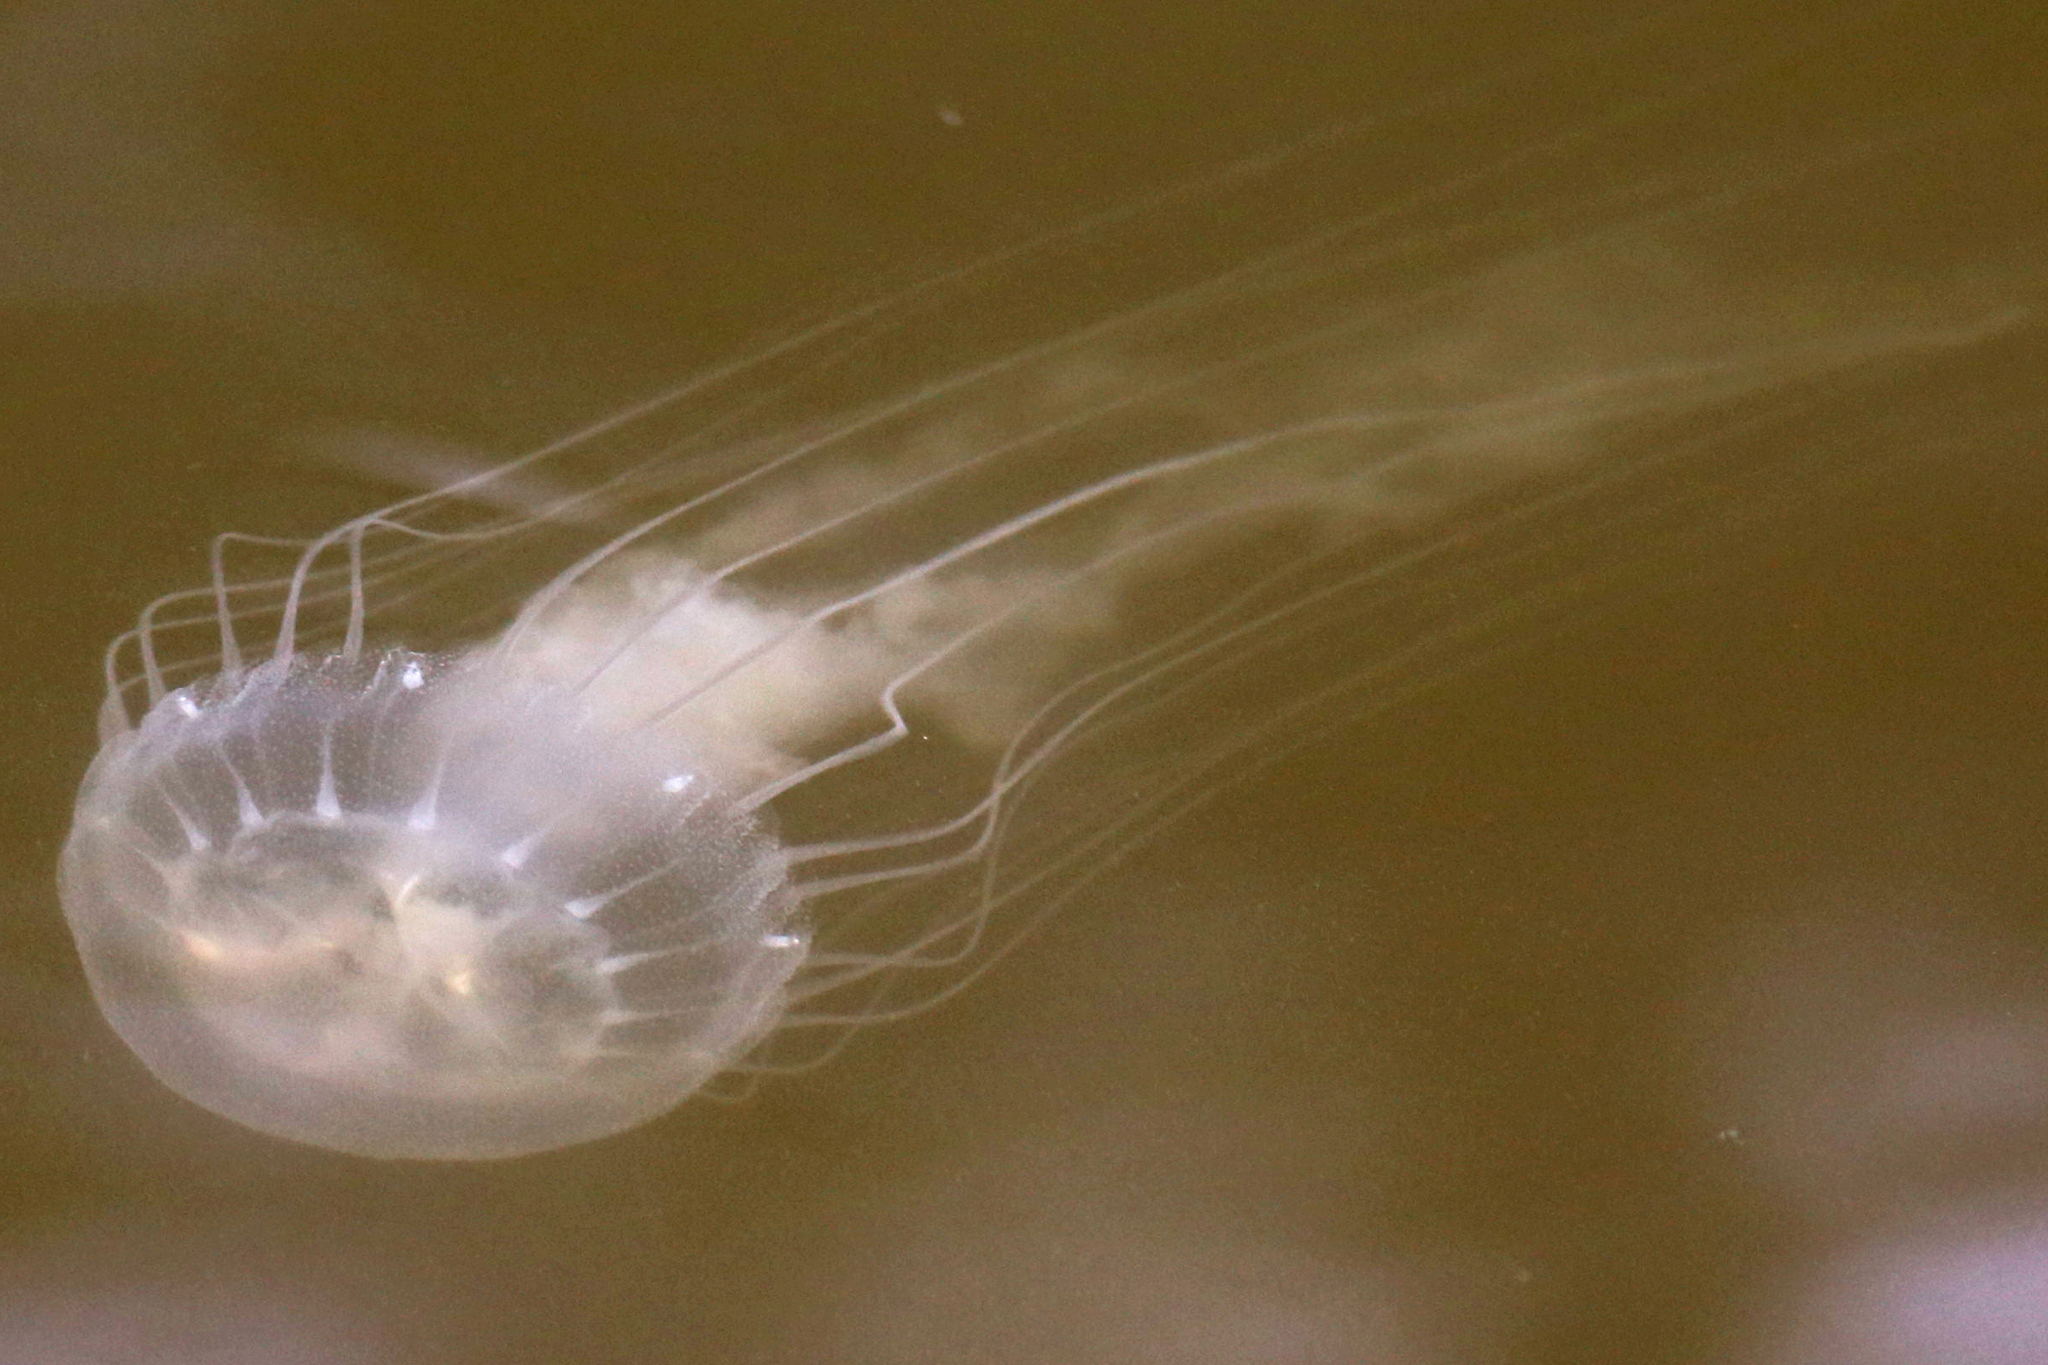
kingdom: Animalia
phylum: Cnidaria
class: Scyphozoa
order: Semaeostomeae
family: Pelagiidae
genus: Chrysaora
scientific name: Chrysaora chesapeakei
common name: Bay nettle
